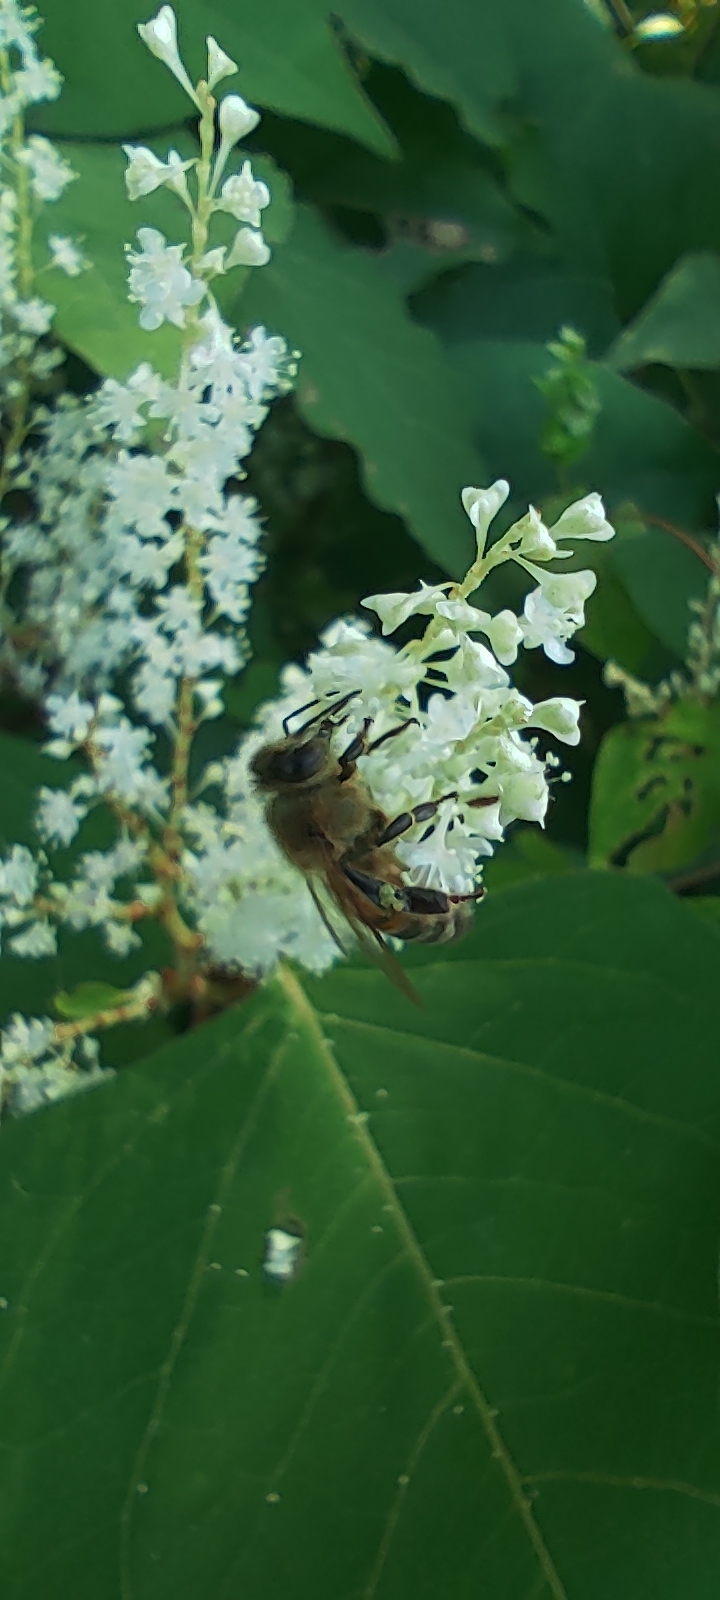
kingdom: Animalia
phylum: Arthropoda
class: Insecta
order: Hymenoptera
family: Apidae
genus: Apis
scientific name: Apis mellifera
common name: Honey bee
